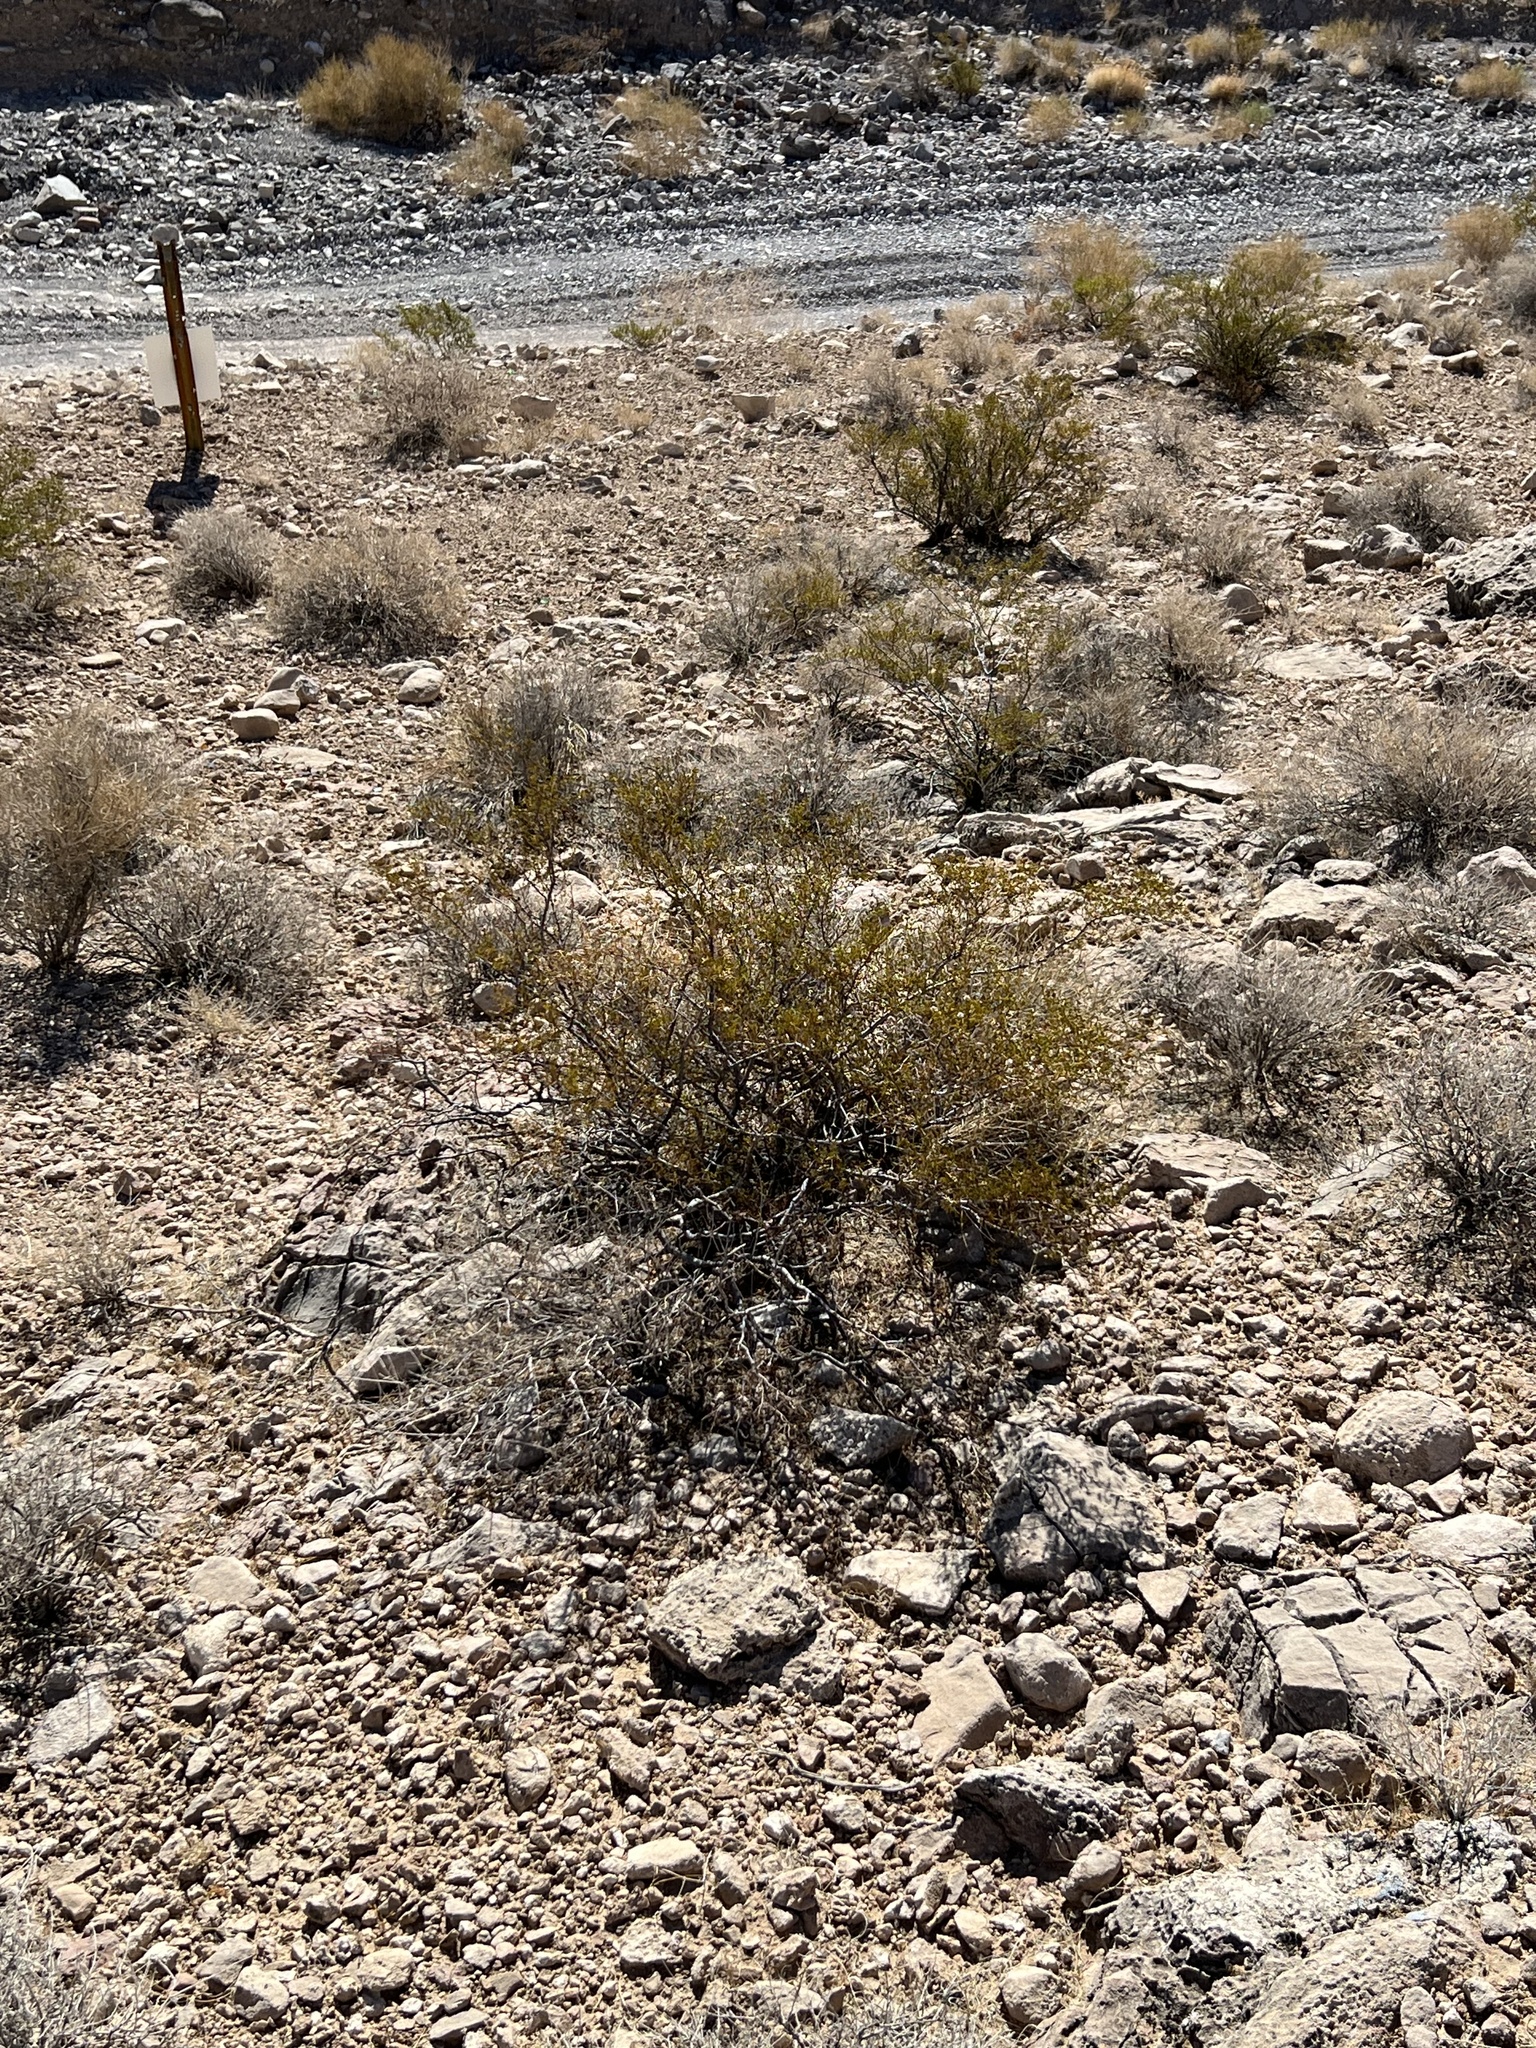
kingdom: Plantae
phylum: Tracheophyta
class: Magnoliopsida
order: Zygophyllales
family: Zygophyllaceae
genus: Larrea
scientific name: Larrea tridentata
